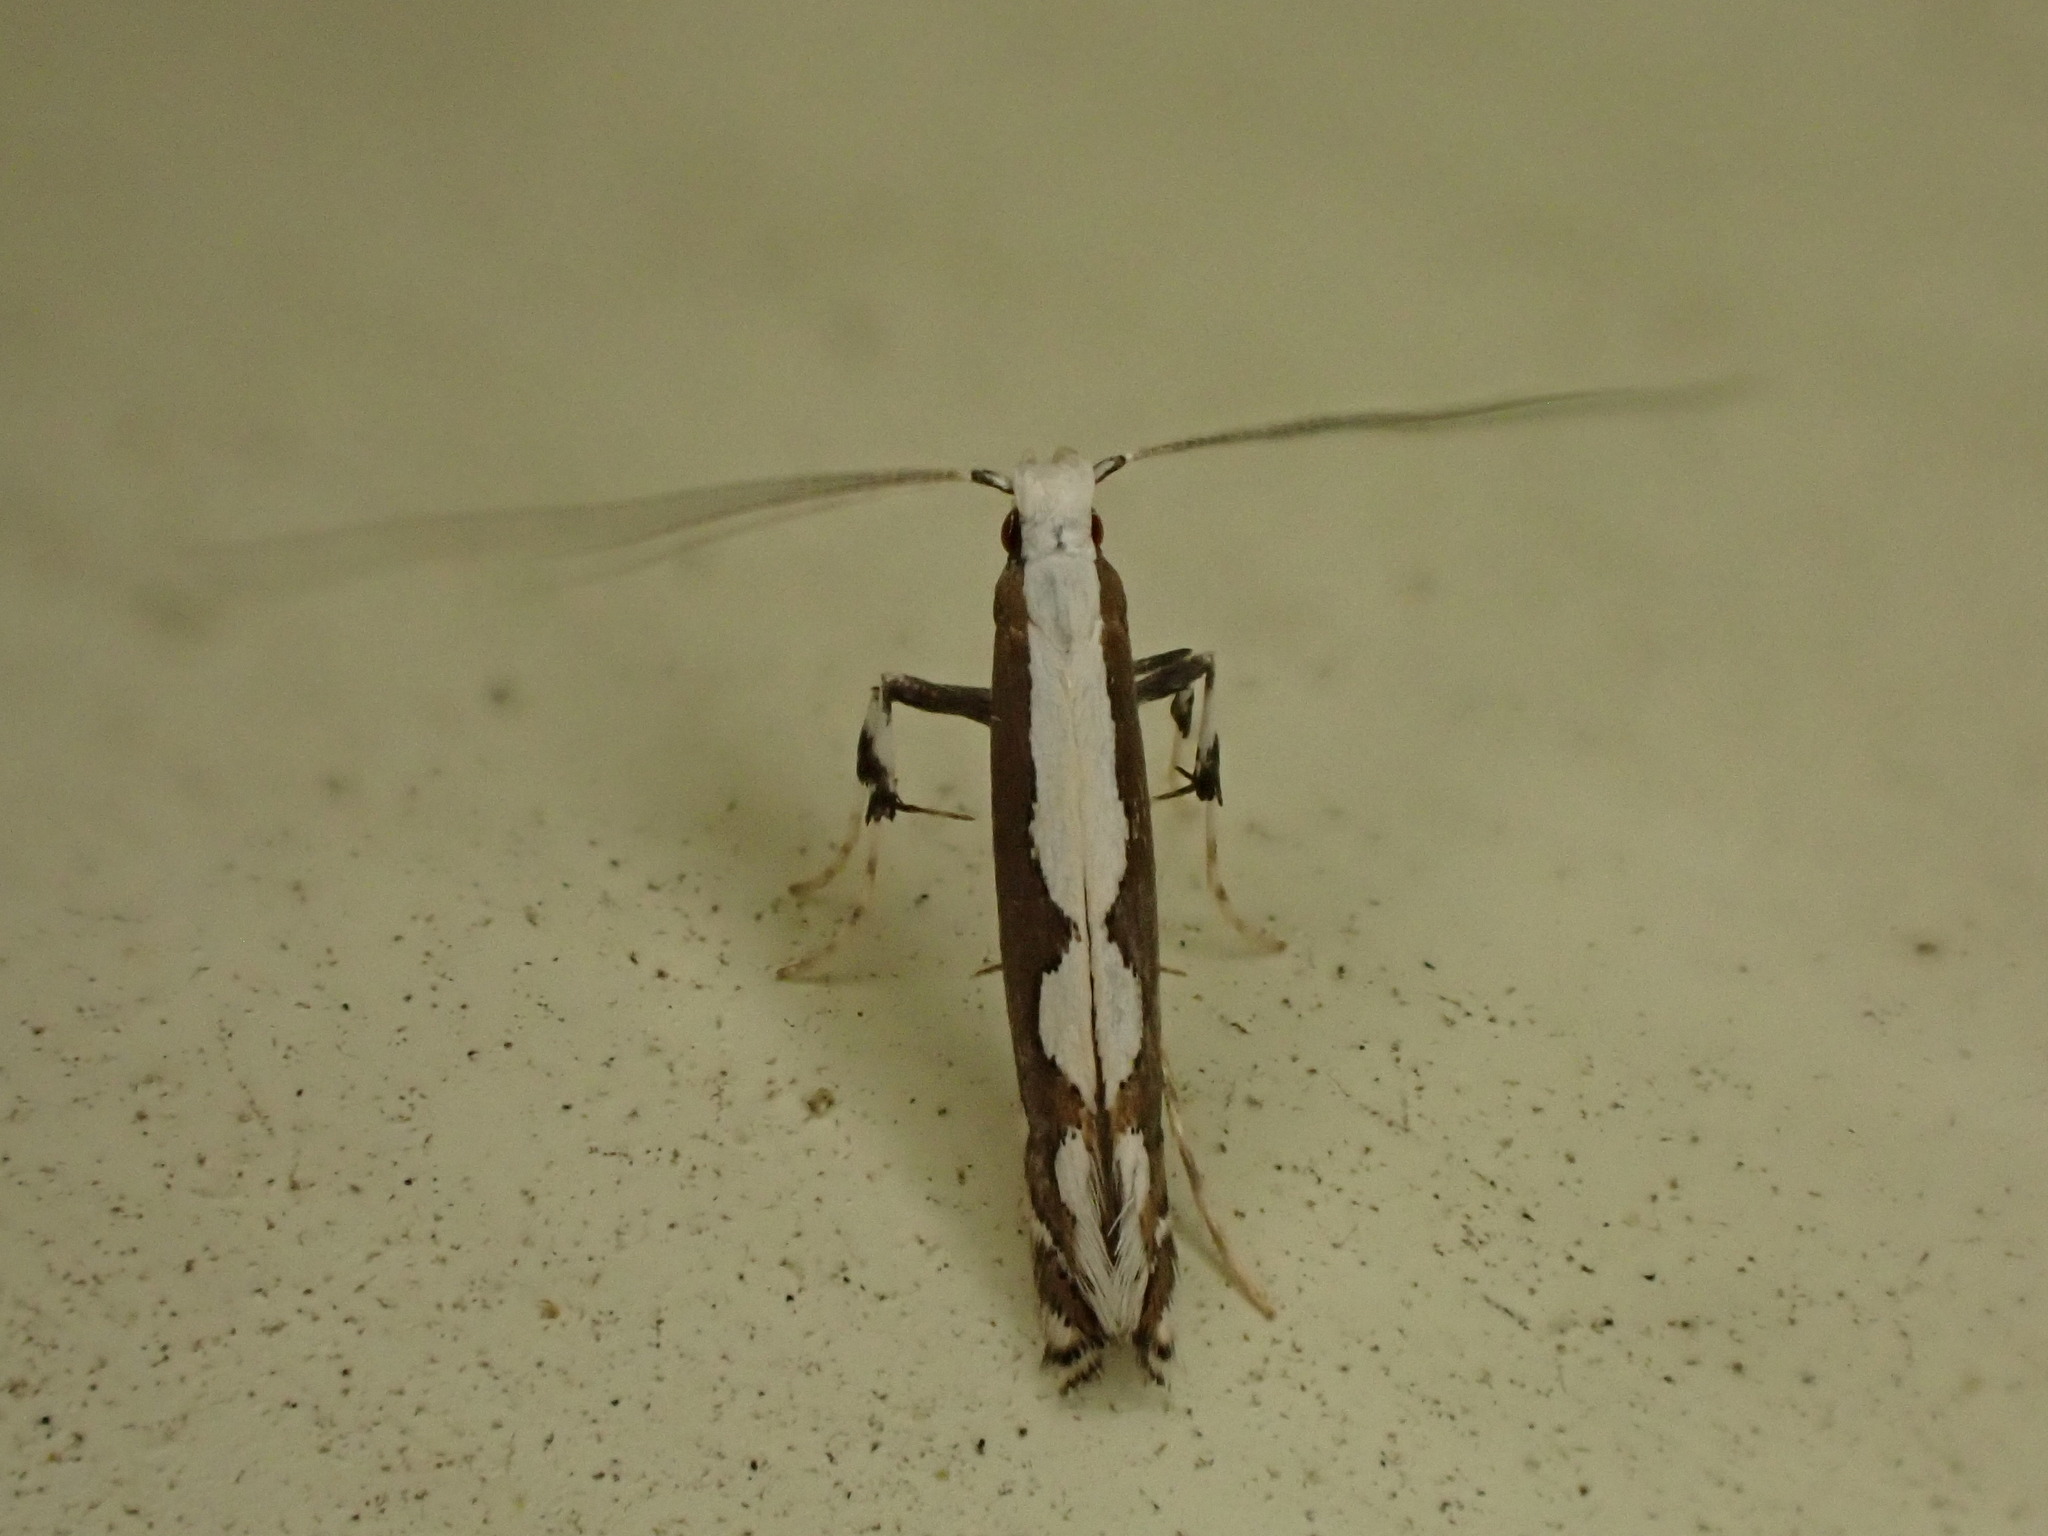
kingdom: Animalia
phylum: Arthropoda
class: Insecta
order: Lepidoptera
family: Gracillariidae
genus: Dialectica
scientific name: Dialectica scalariella
